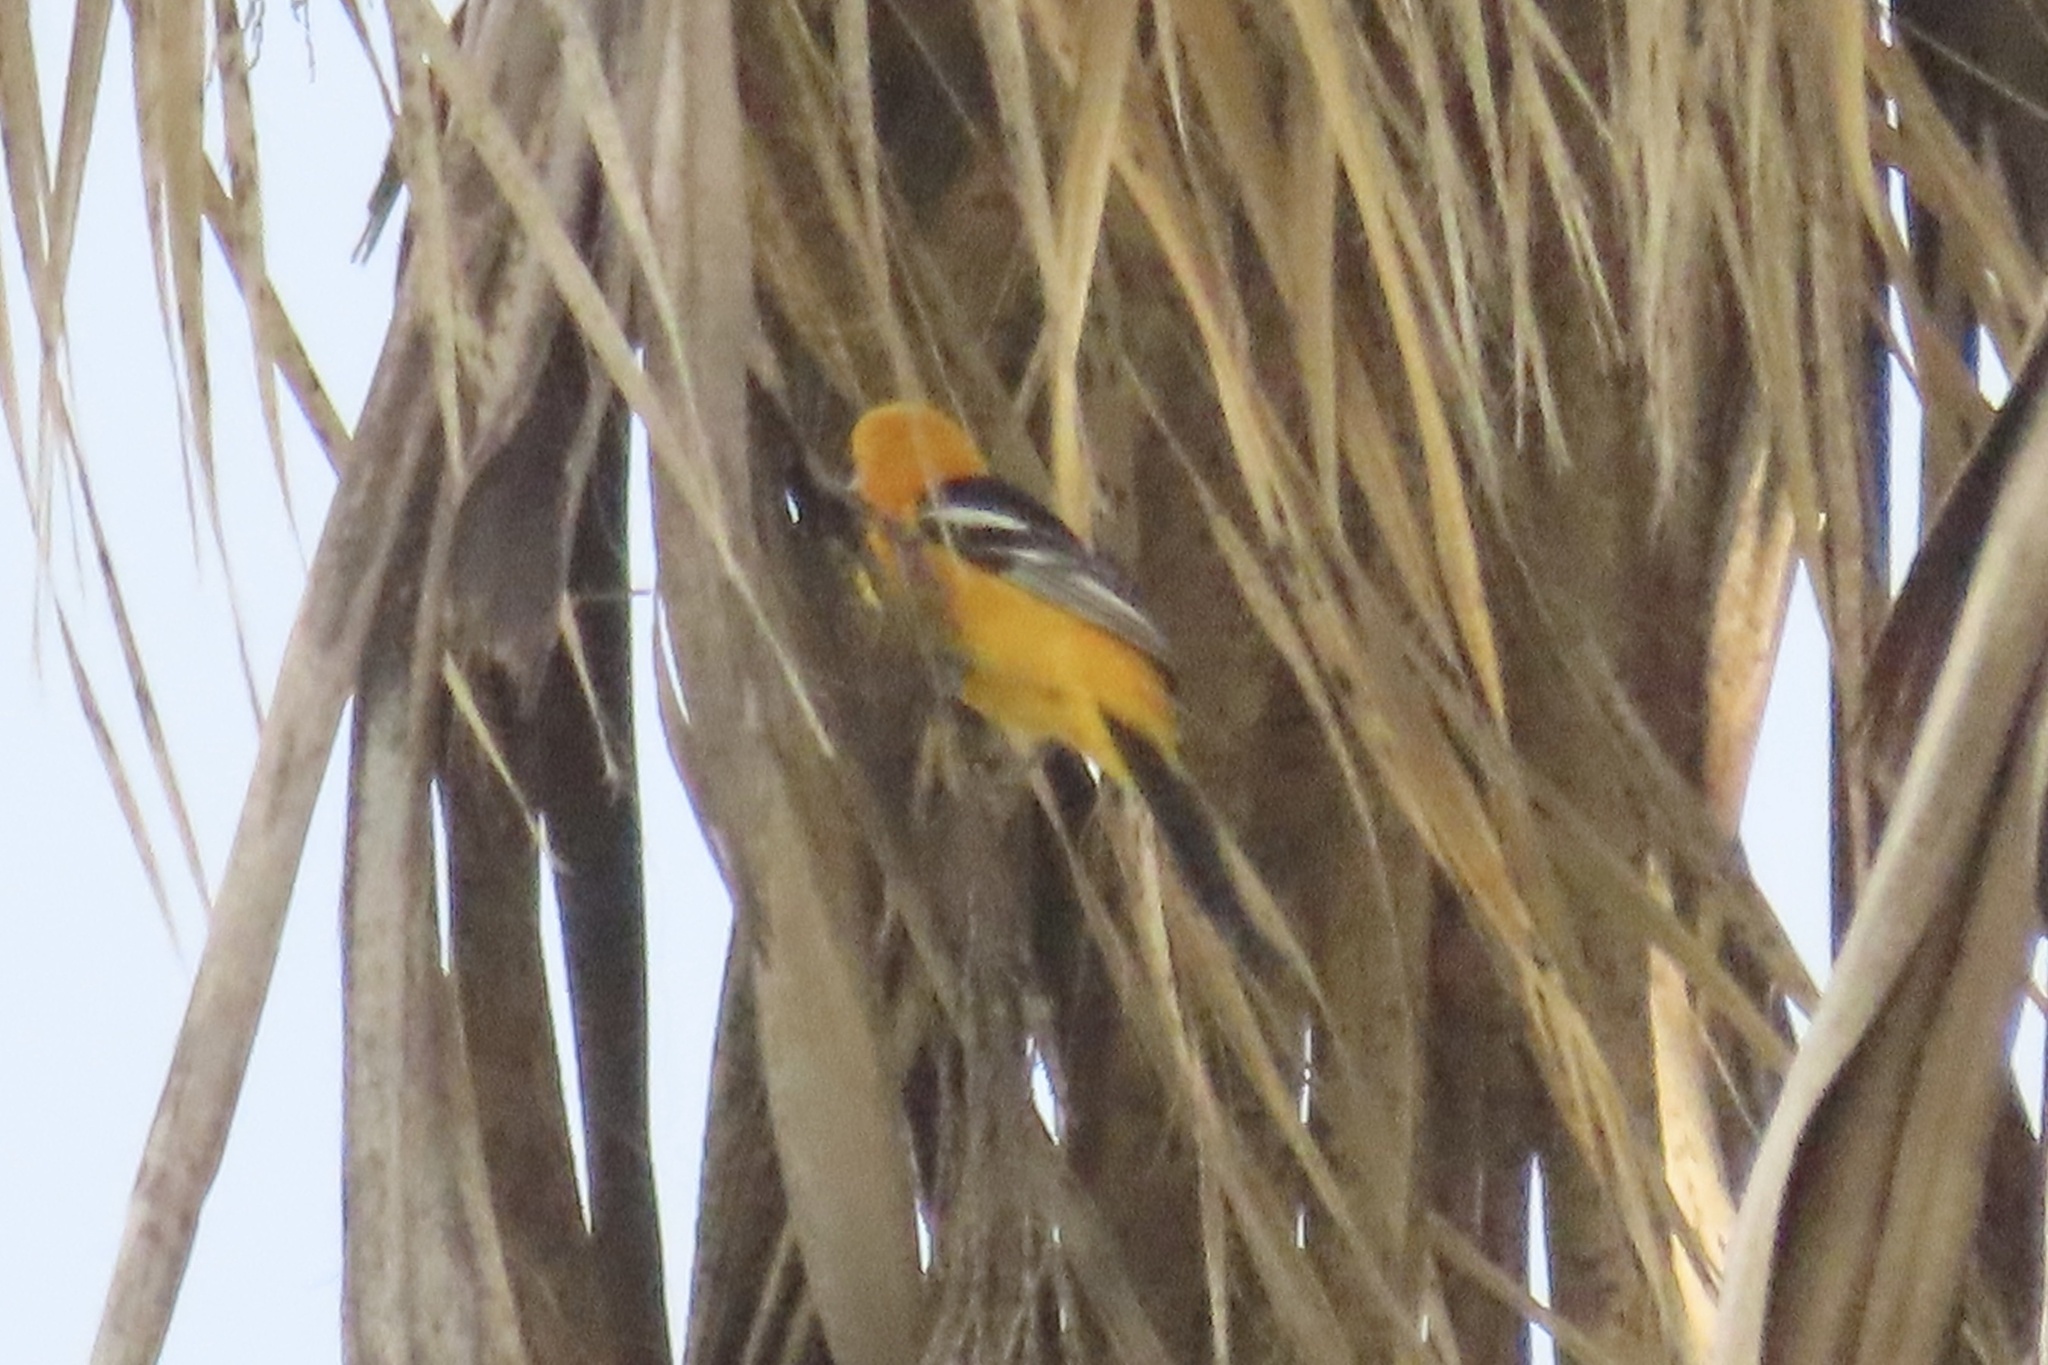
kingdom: Animalia
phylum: Chordata
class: Aves
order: Passeriformes
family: Icteridae
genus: Icterus
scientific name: Icterus cucullatus
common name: Hooded oriole
